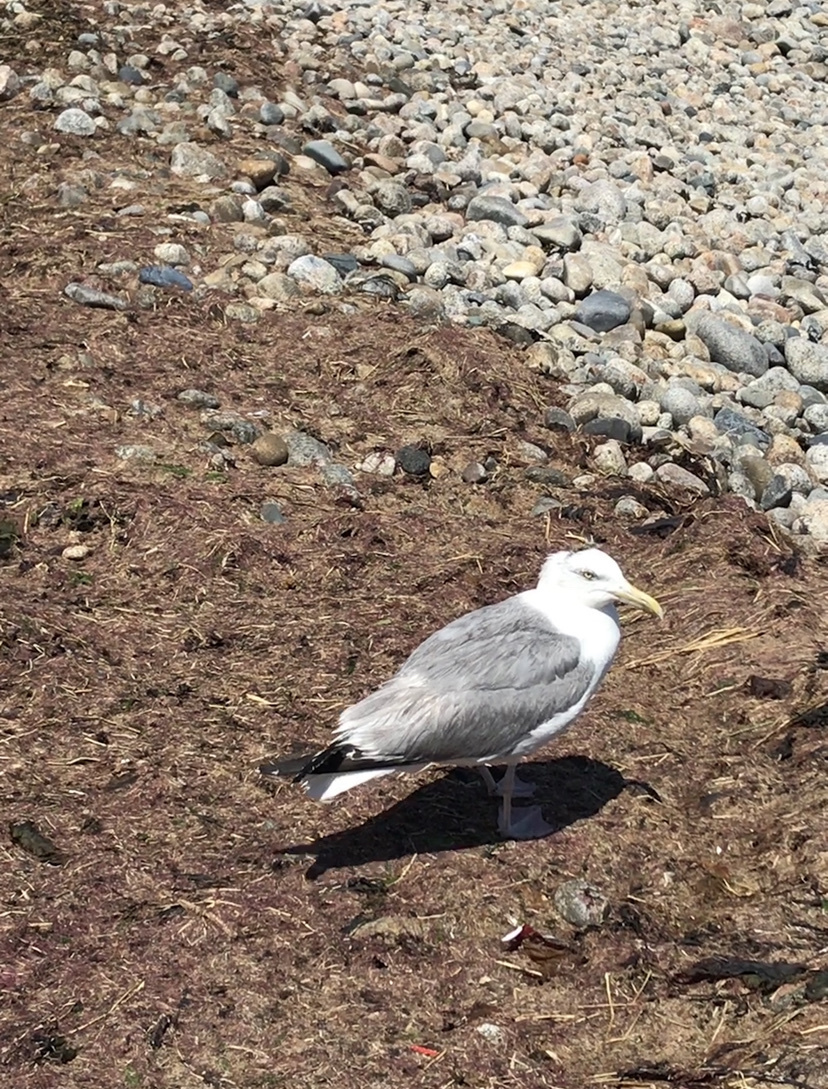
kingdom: Animalia
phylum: Chordata
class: Aves
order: Charadriiformes
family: Laridae
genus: Larus
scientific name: Larus argentatus
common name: Herring gull
